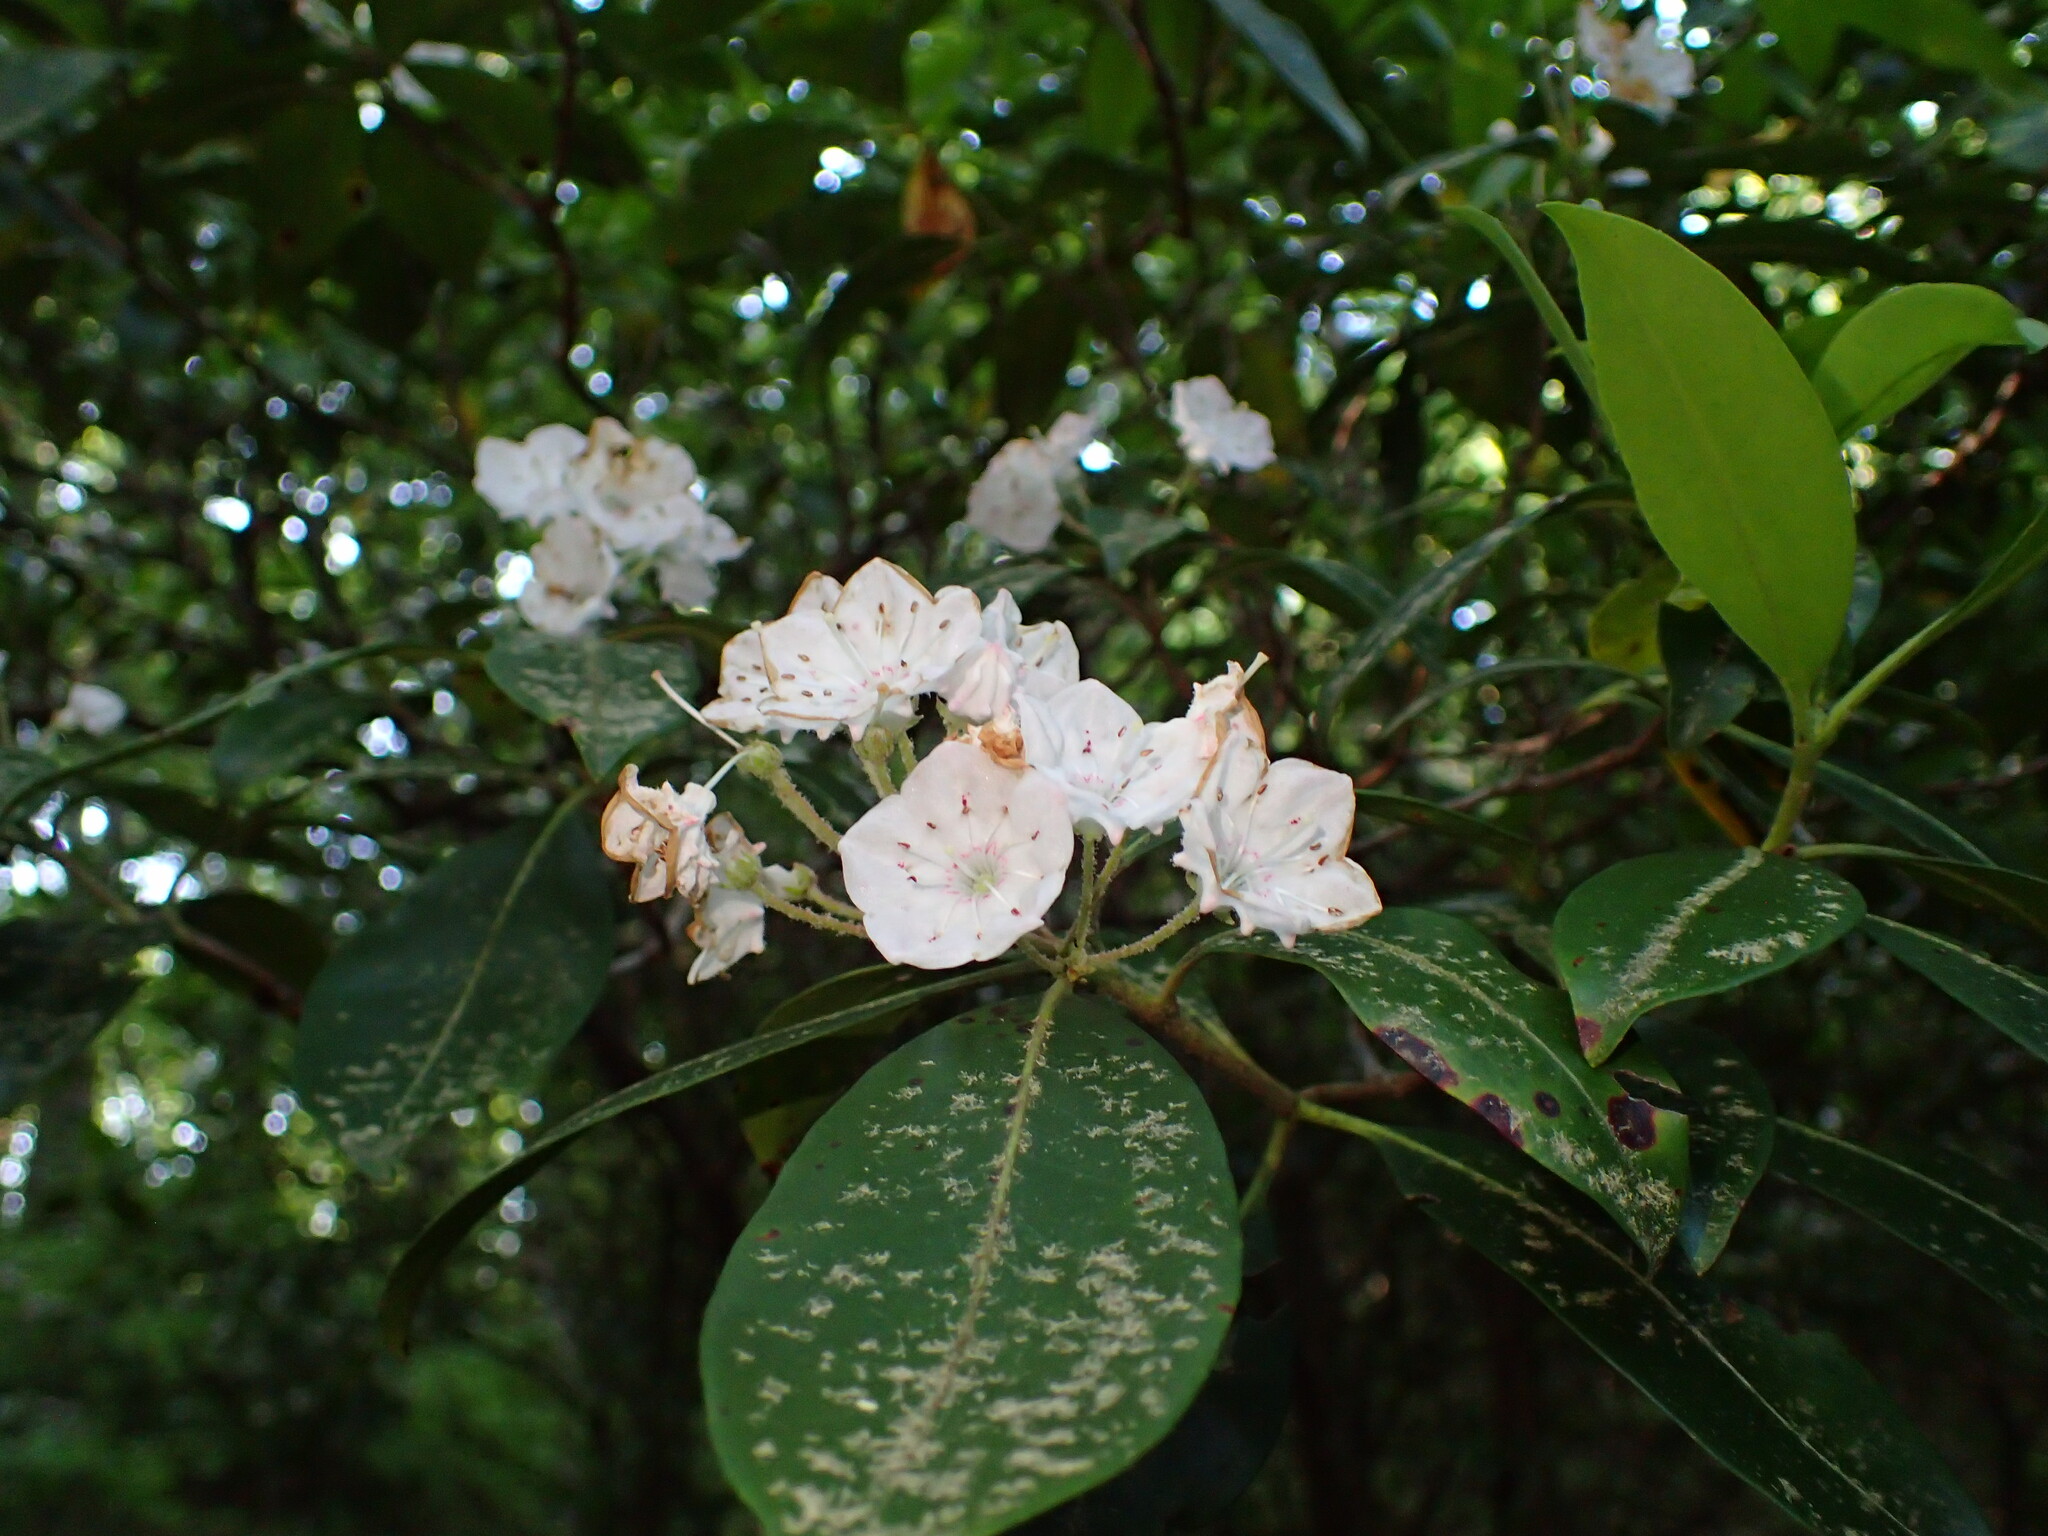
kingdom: Plantae
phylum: Tracheophyta
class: Magnoliopsida
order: Ericales
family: Ericaceae
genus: Kalmia
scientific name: Kalmia latifolia
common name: Mountain-laurel
